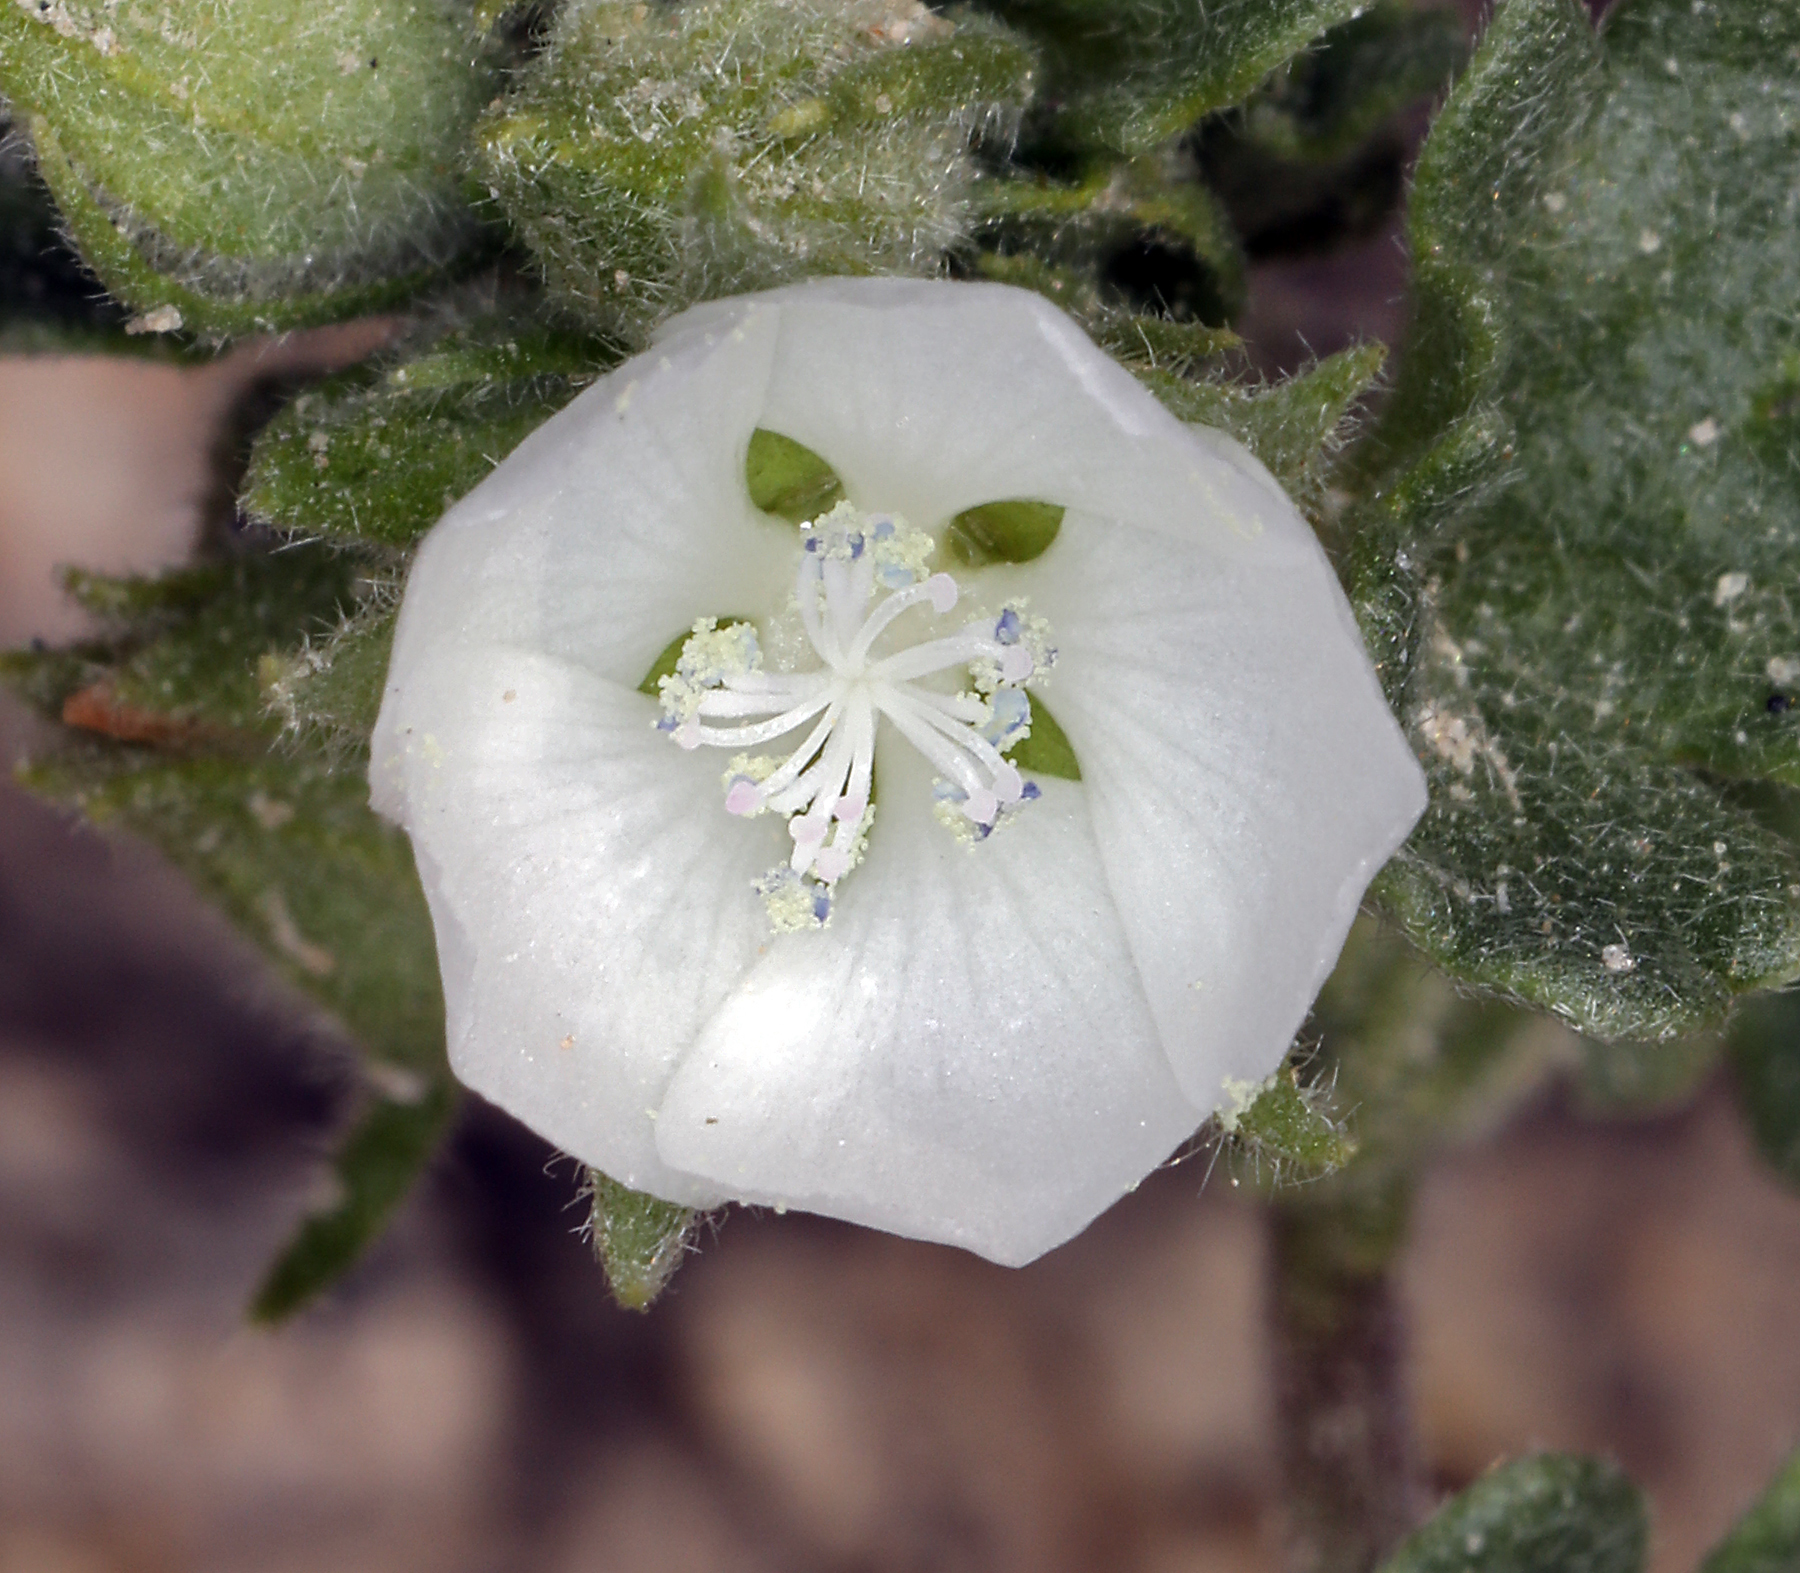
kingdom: Plantae
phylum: Tracheophyta
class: Magnoliopsida
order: Malvales
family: Malvaceae
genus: Eremalche
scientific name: Eremalche exilis
